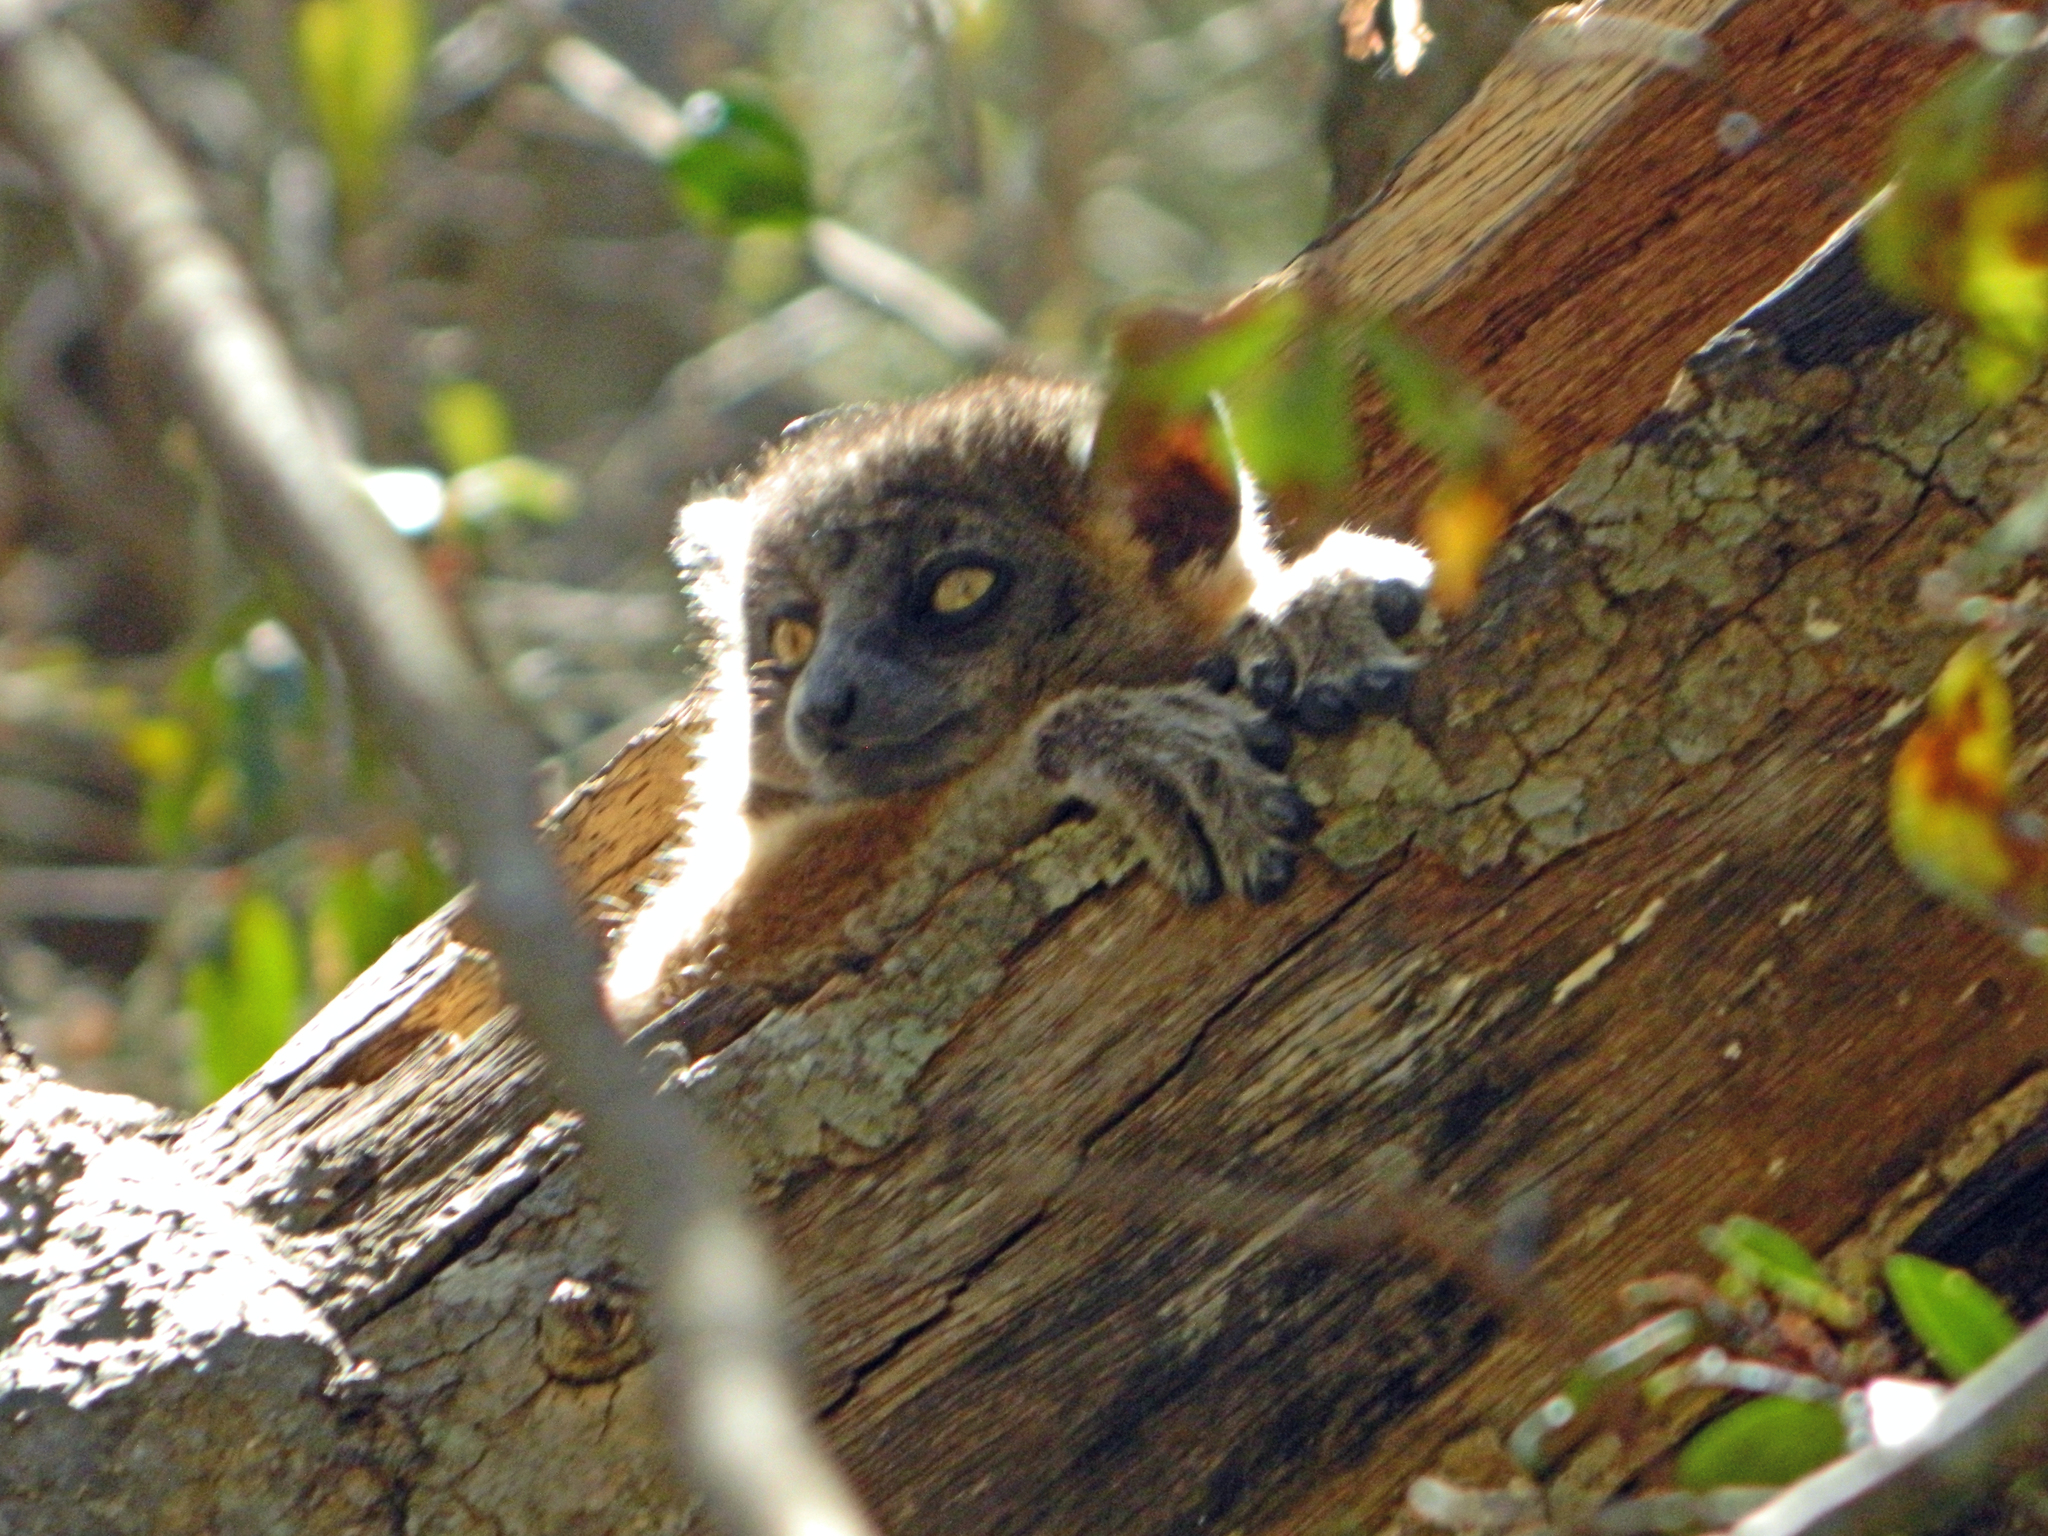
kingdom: Animalia
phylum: Chordata
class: Mammalia
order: Primates
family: Lepilemuridae
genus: Lepilemur
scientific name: Lepilemur hubbardi
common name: Zombitse sportive lemur
